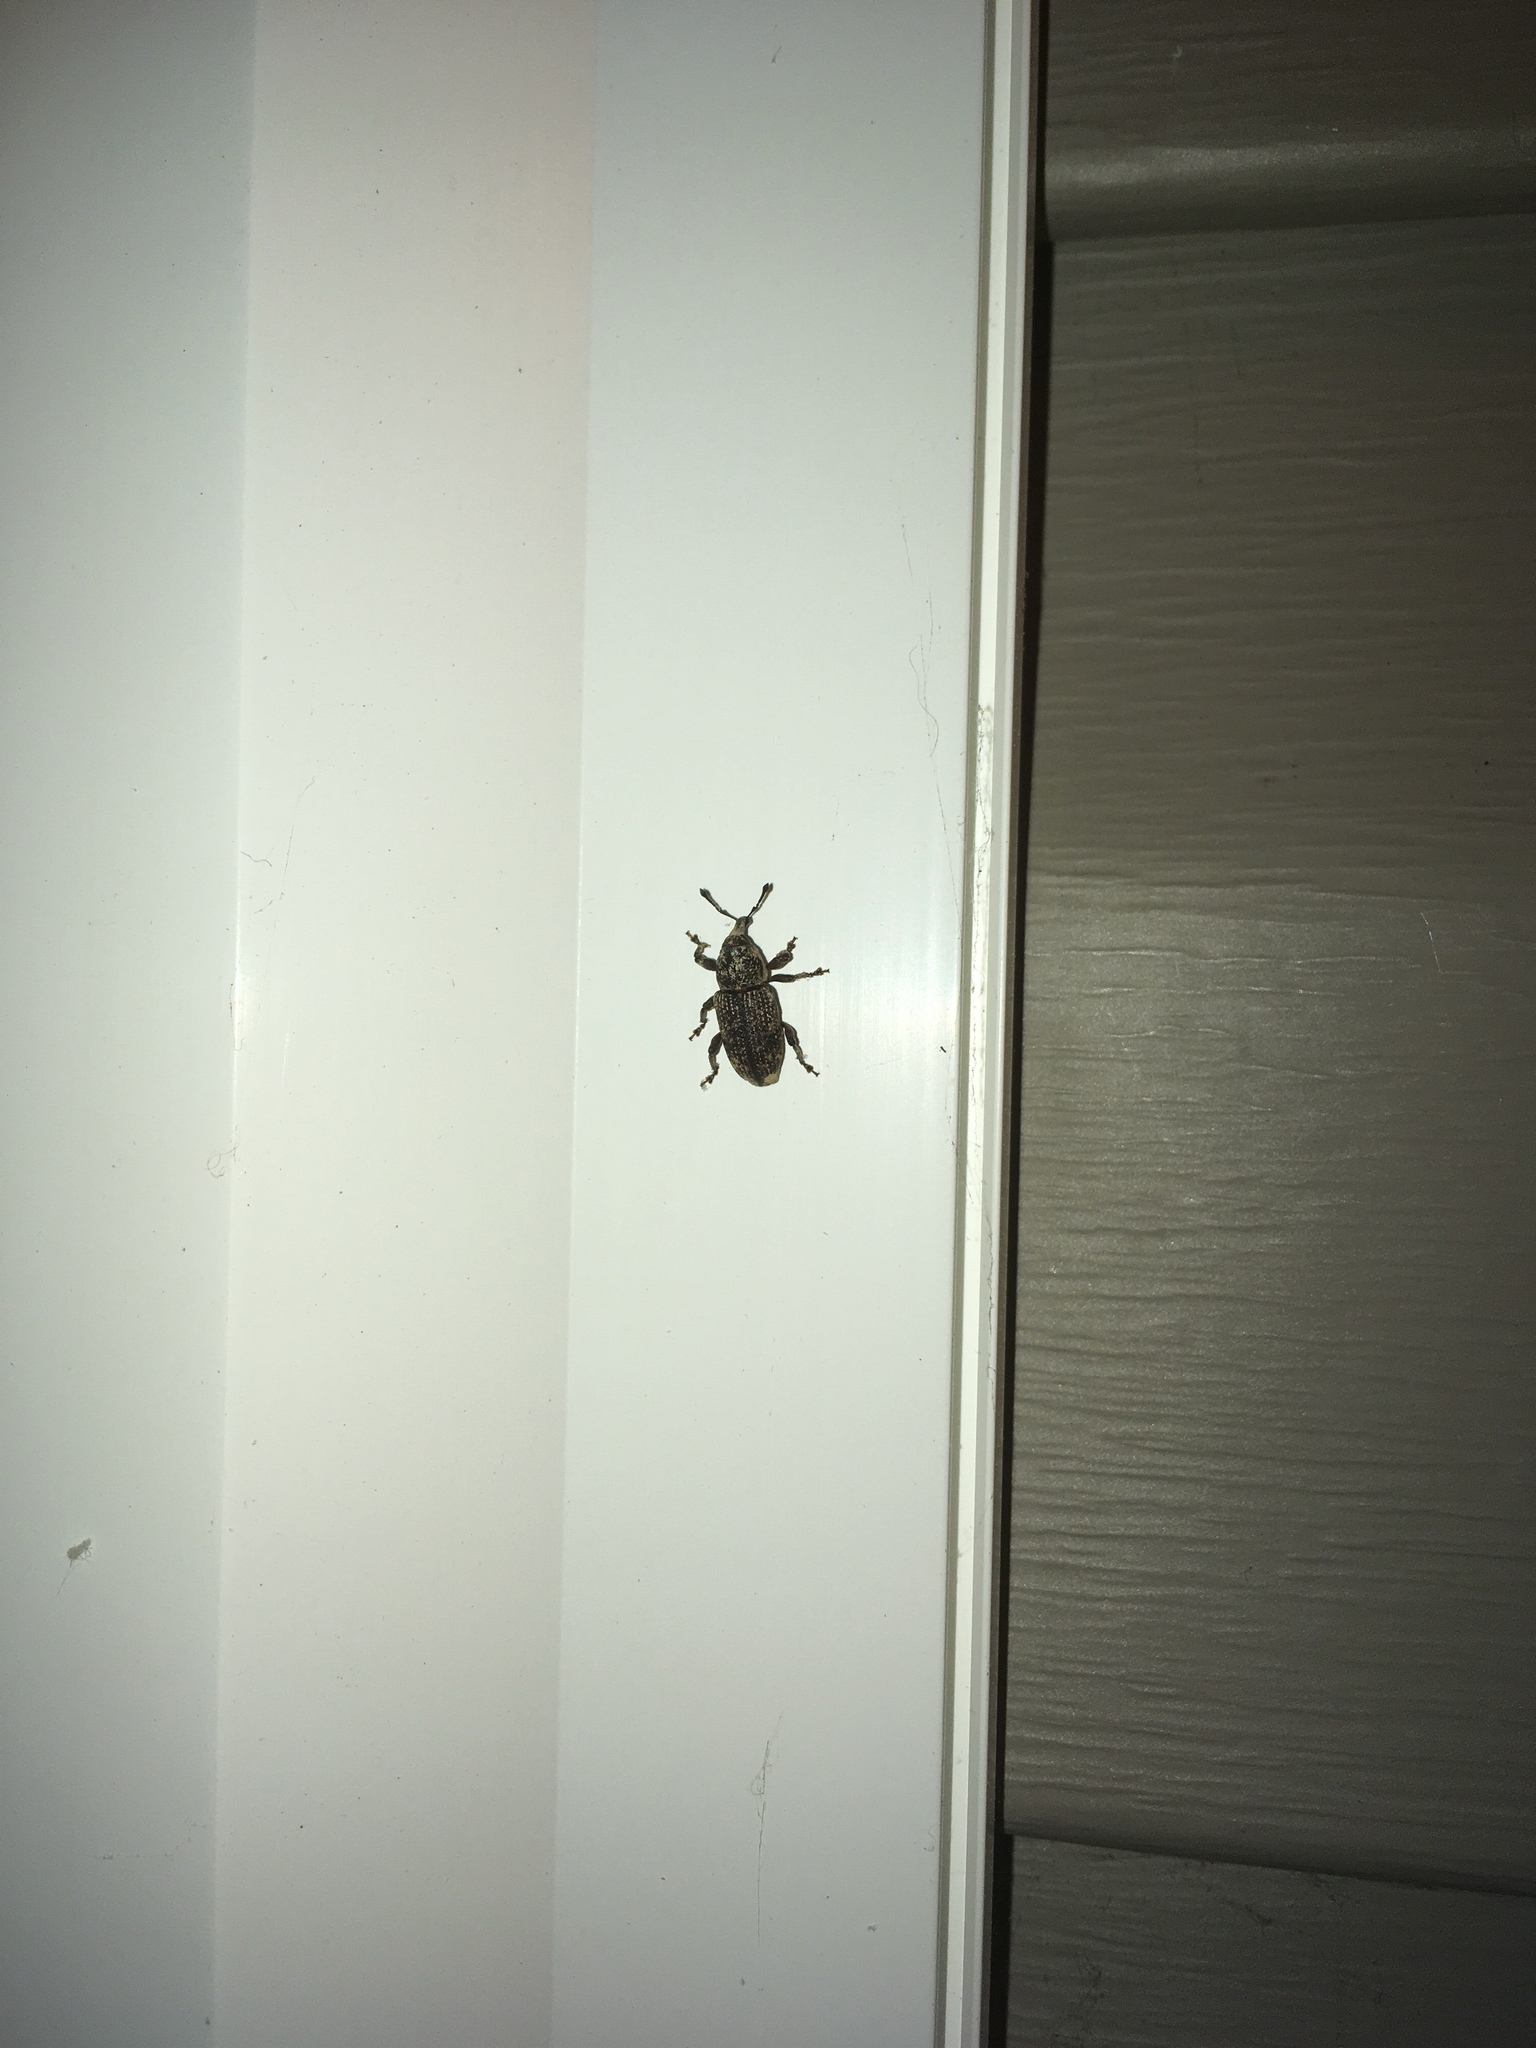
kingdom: Animalia
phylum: Arthropoda
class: Insecta
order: Coleoptera
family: Curculionidae
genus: Pachylobius
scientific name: Pachylobius picivorus
